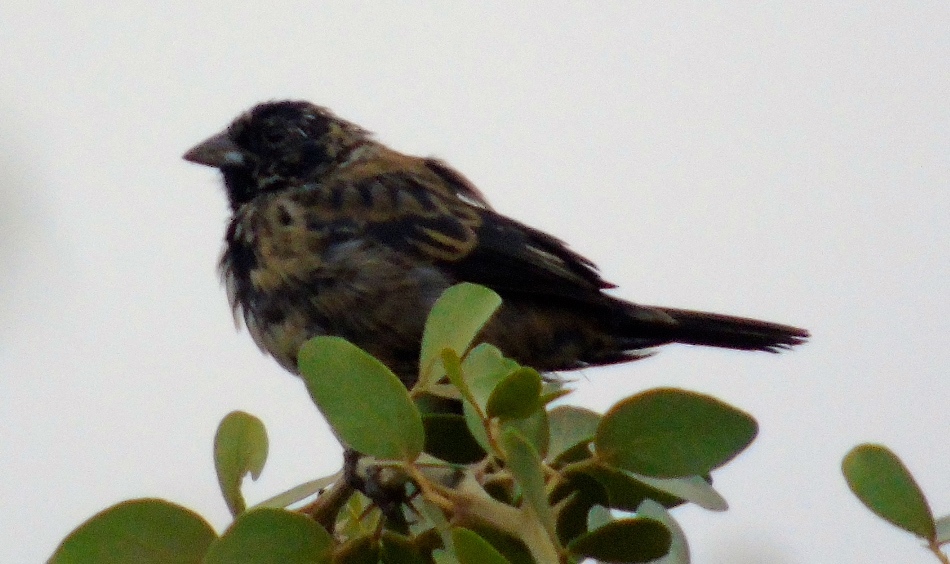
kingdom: Animalia
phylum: Chordata
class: Aves
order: Passeriformes
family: Thraupidae
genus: Volatinia
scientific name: Volatinia jacarina
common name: Blue-black grassquit
